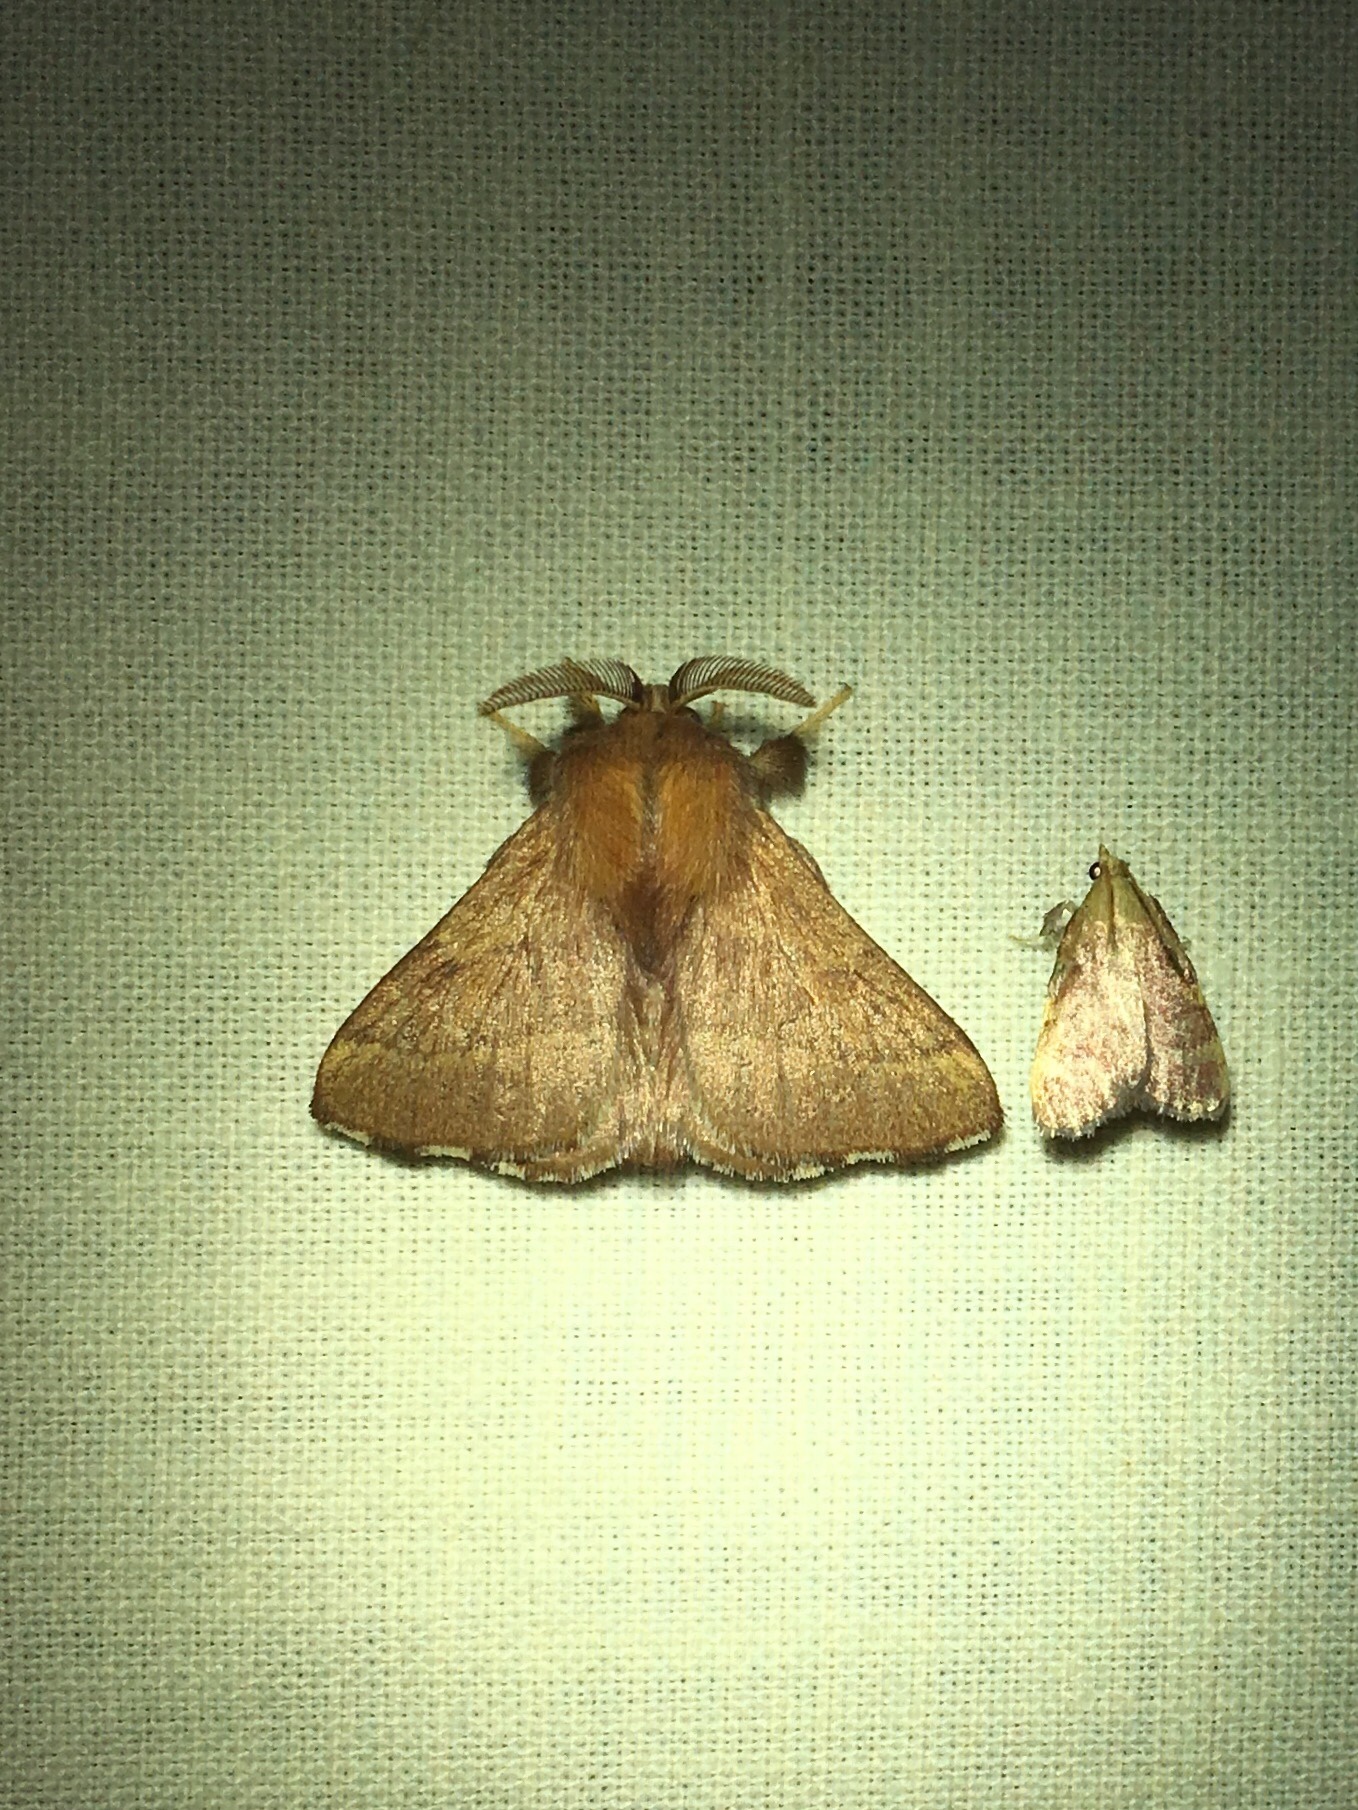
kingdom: Animalia
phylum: Arthropoda
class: Insecta
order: Lepidoptera
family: Lasiocampidae
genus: Malacosoma
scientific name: Malacosoma disstria
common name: Forest tent caterpillar
